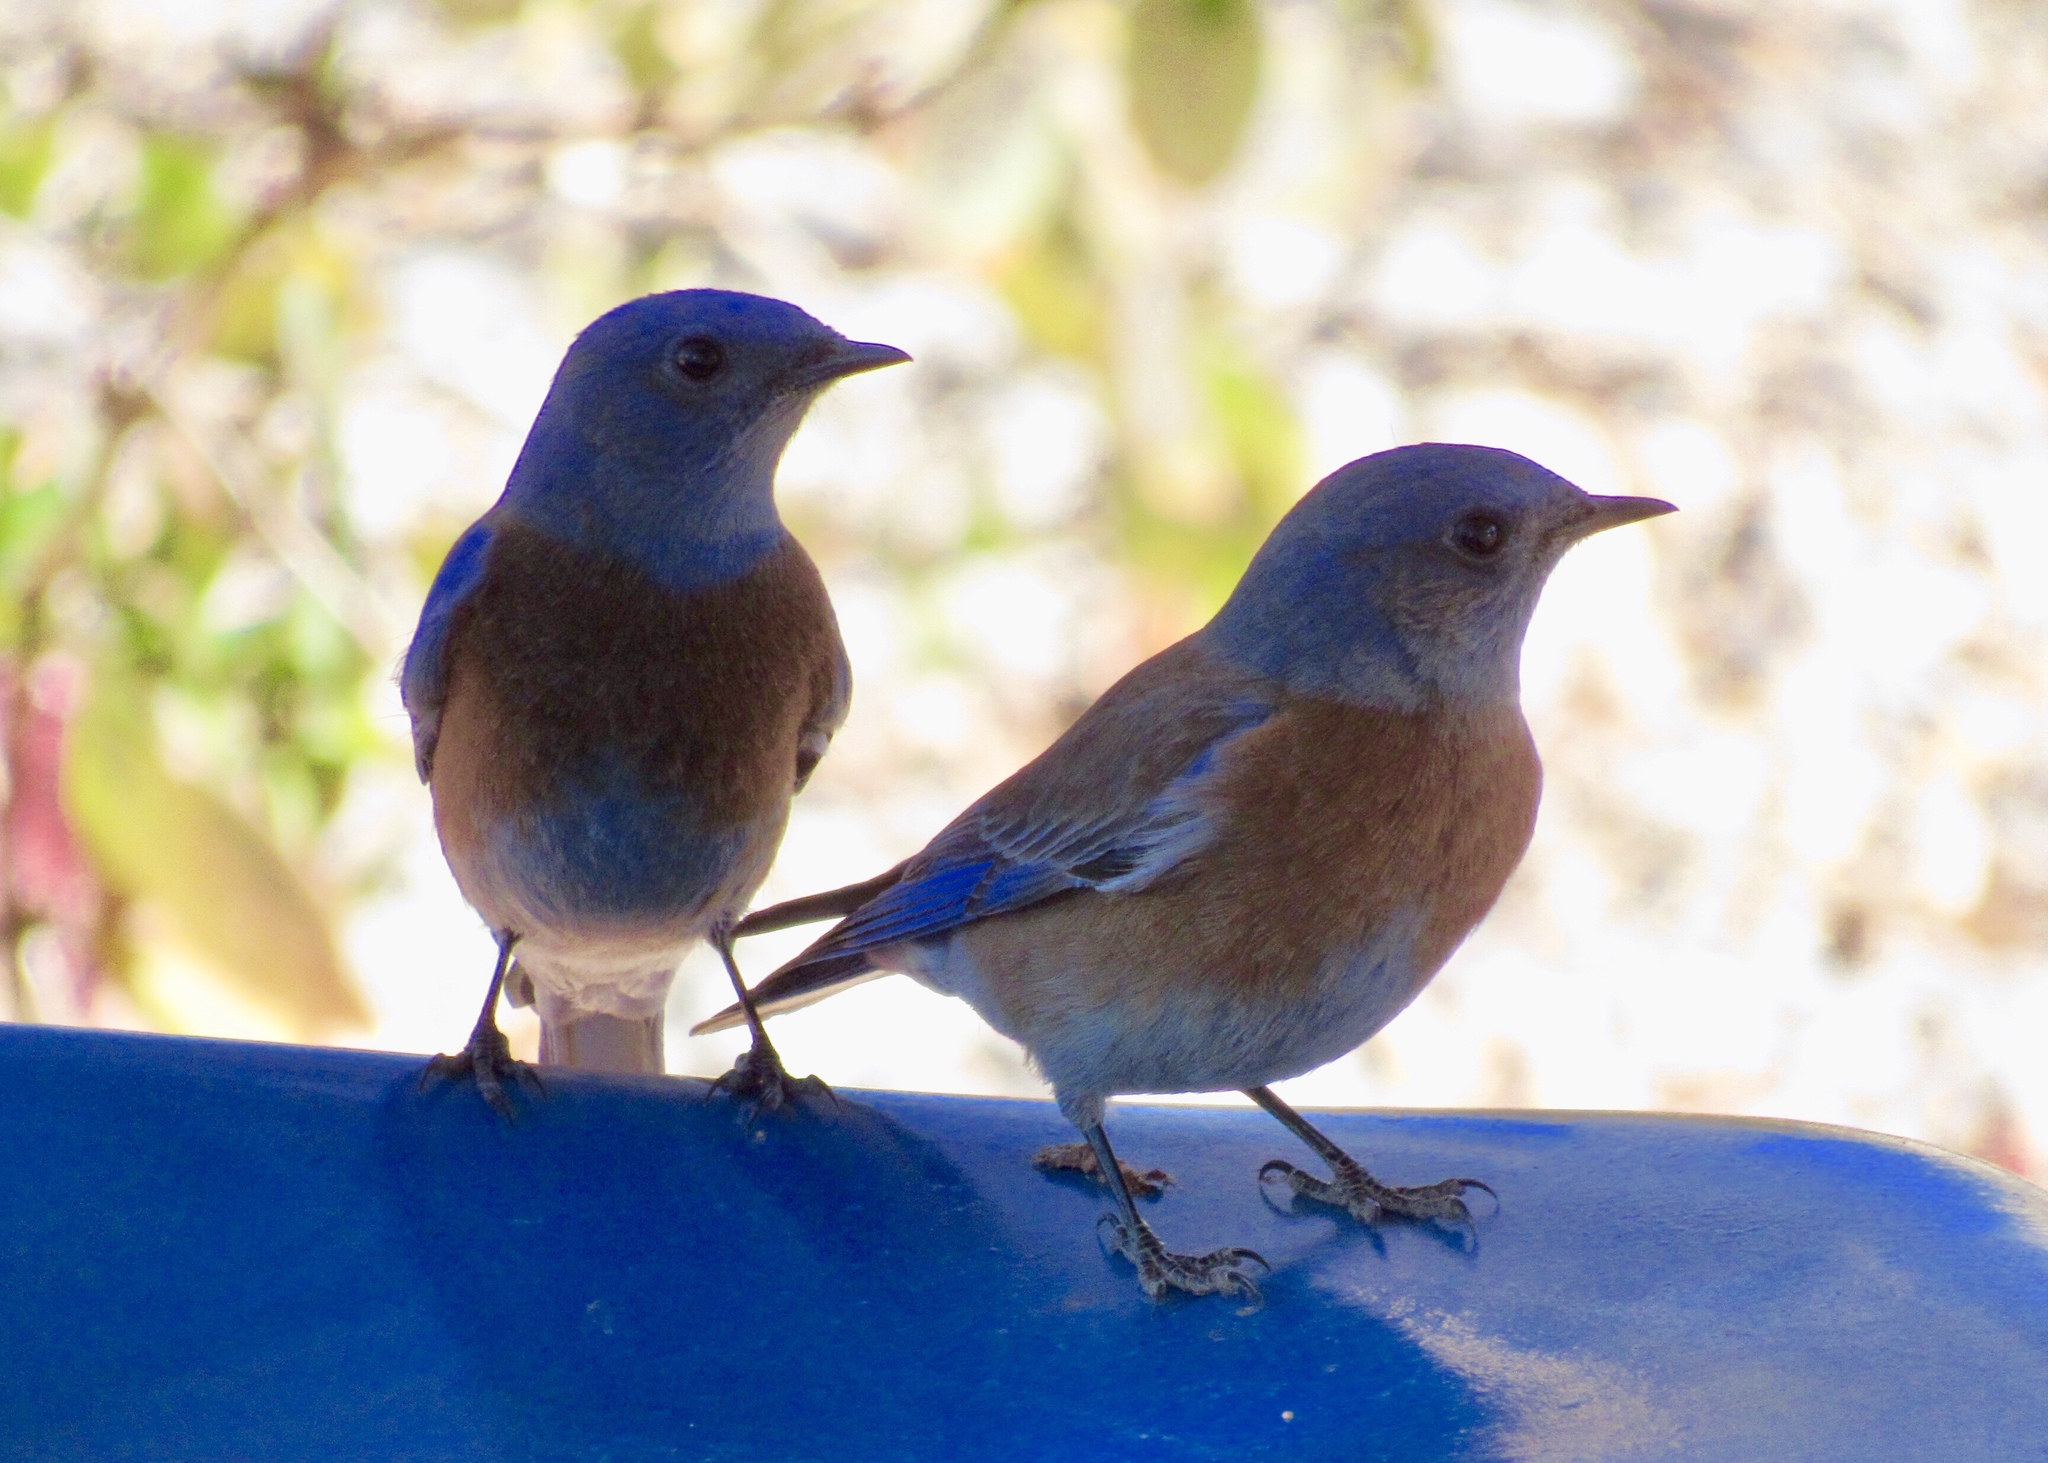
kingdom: Animalia
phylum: Chordata
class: Aves
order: Passeriformes
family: Turdidae
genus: Sialia
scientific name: Sialia mexicana
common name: Western bluebird
